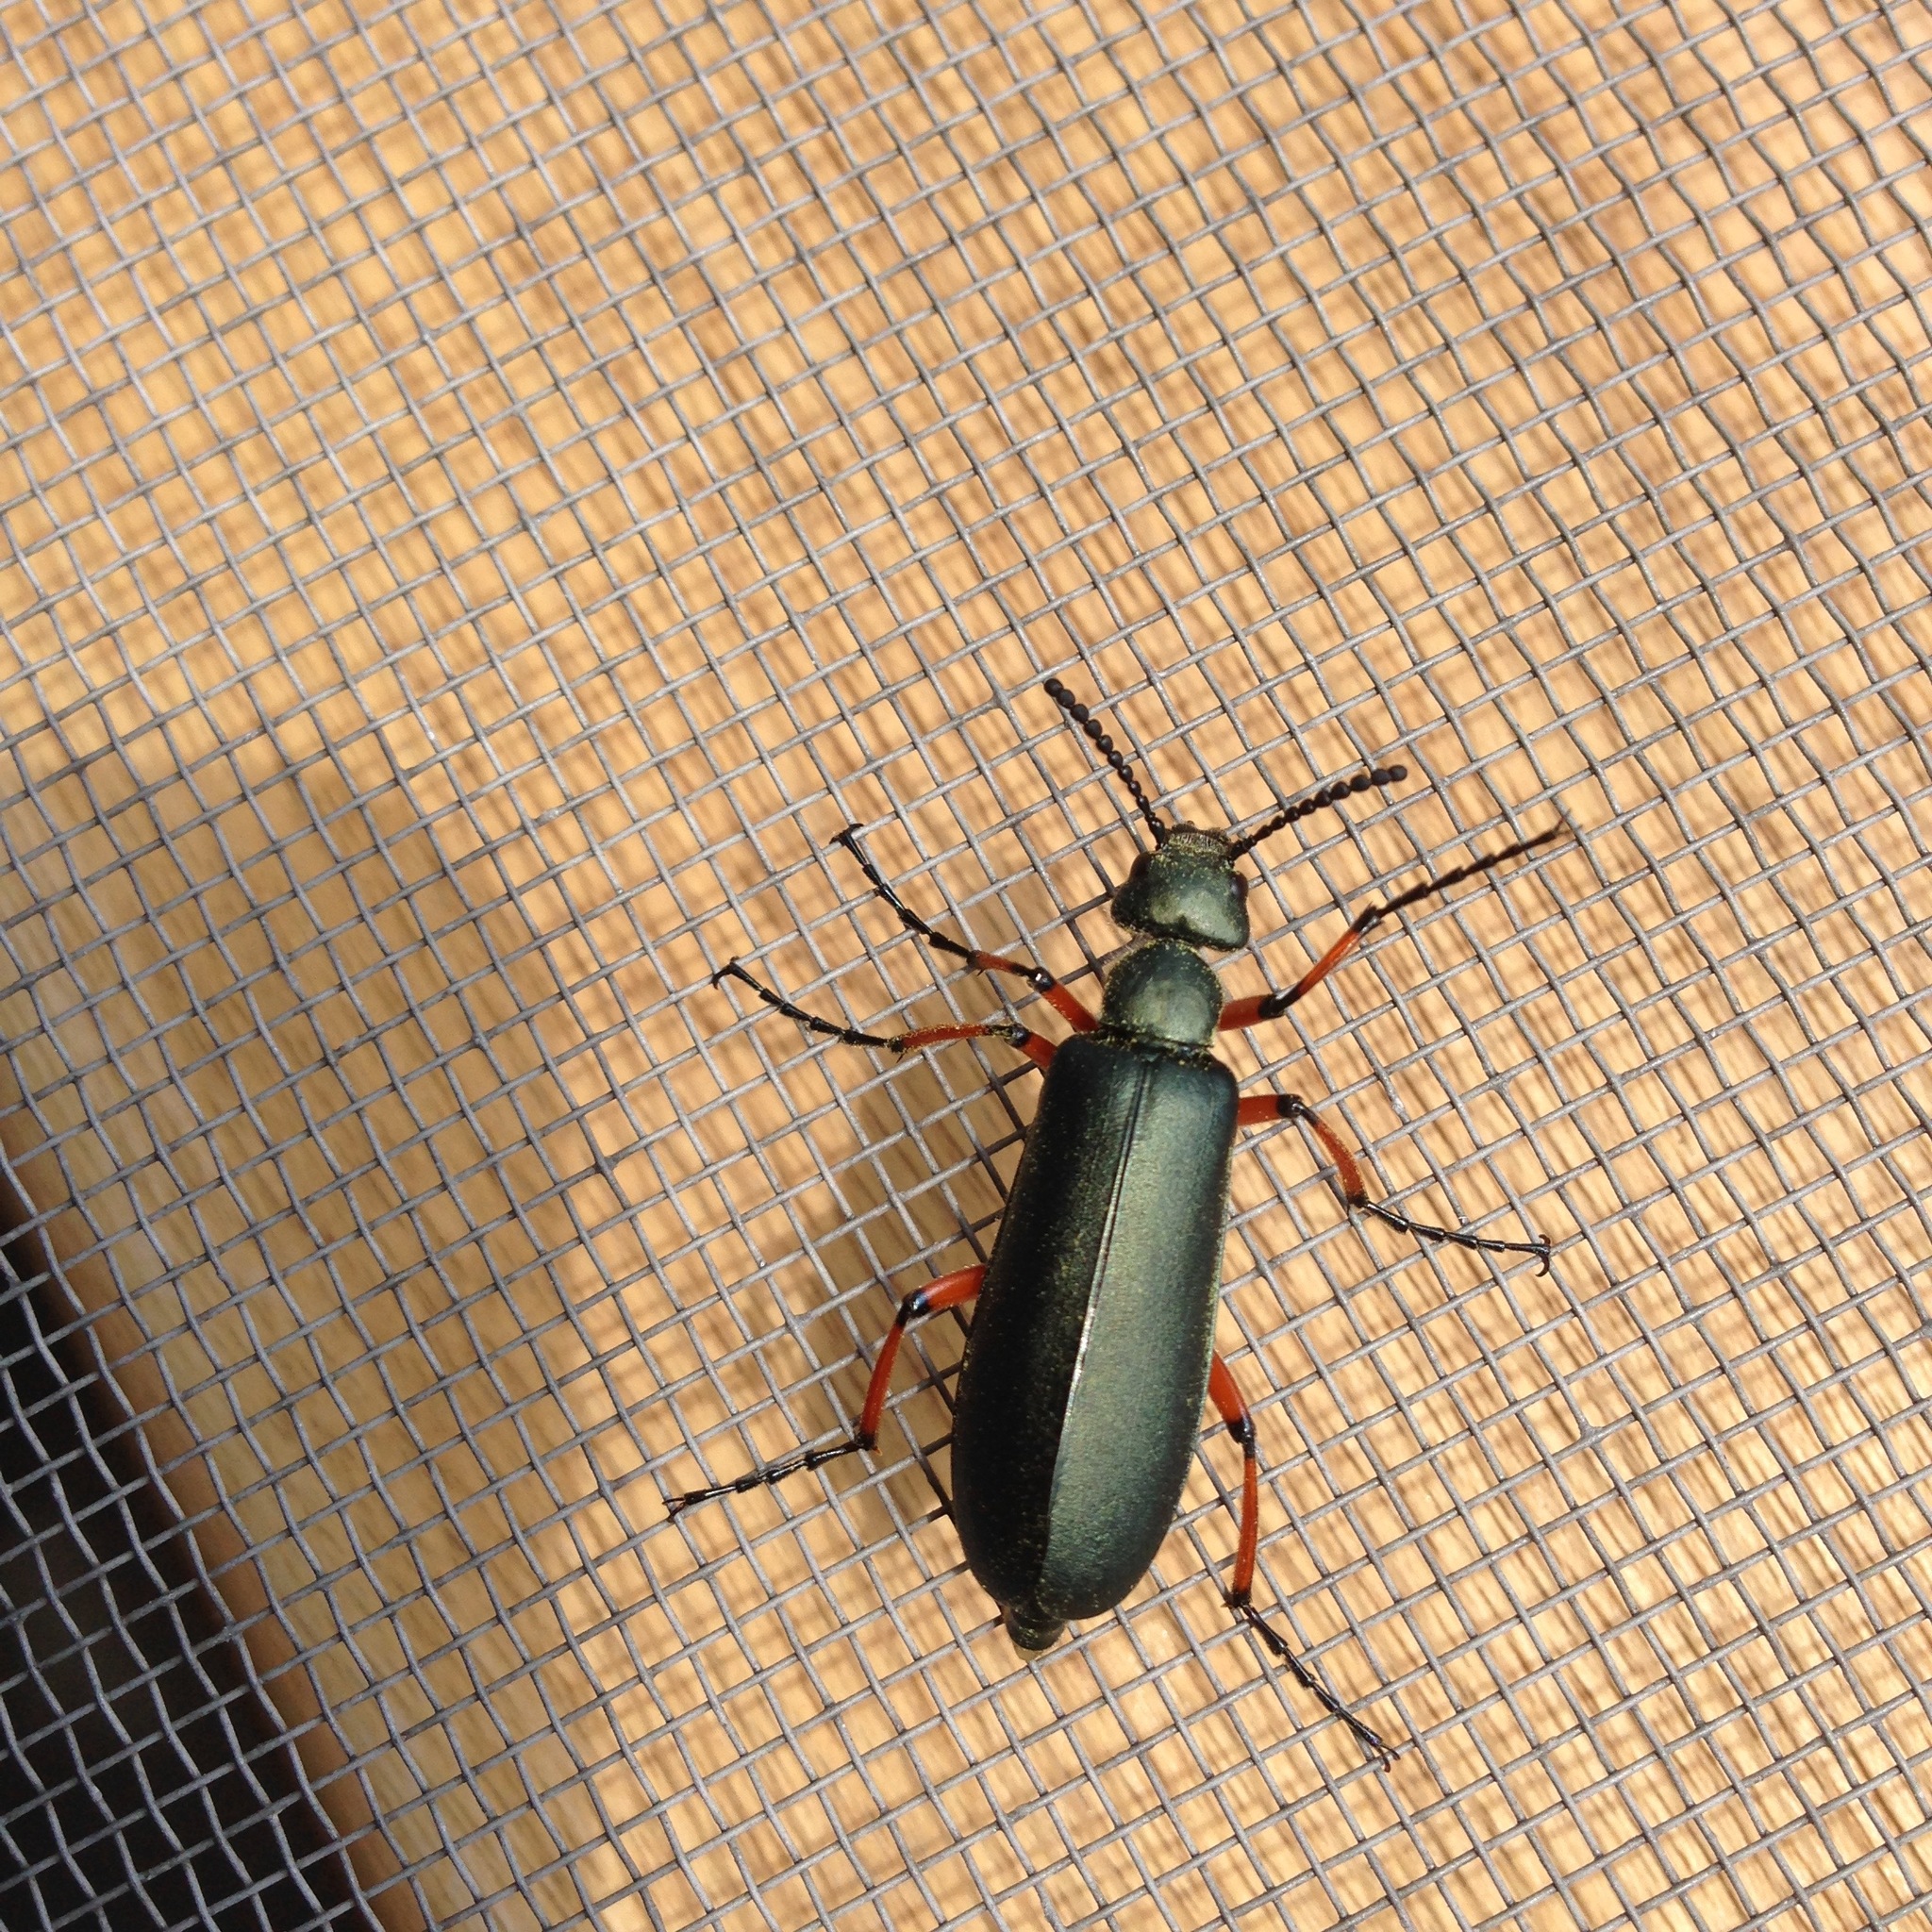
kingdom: Animalia
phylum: Arthropoda
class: Insecta
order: Coleoptera
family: Meloidae
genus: Lytta
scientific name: Lytta sayi
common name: Say's blister beetle
